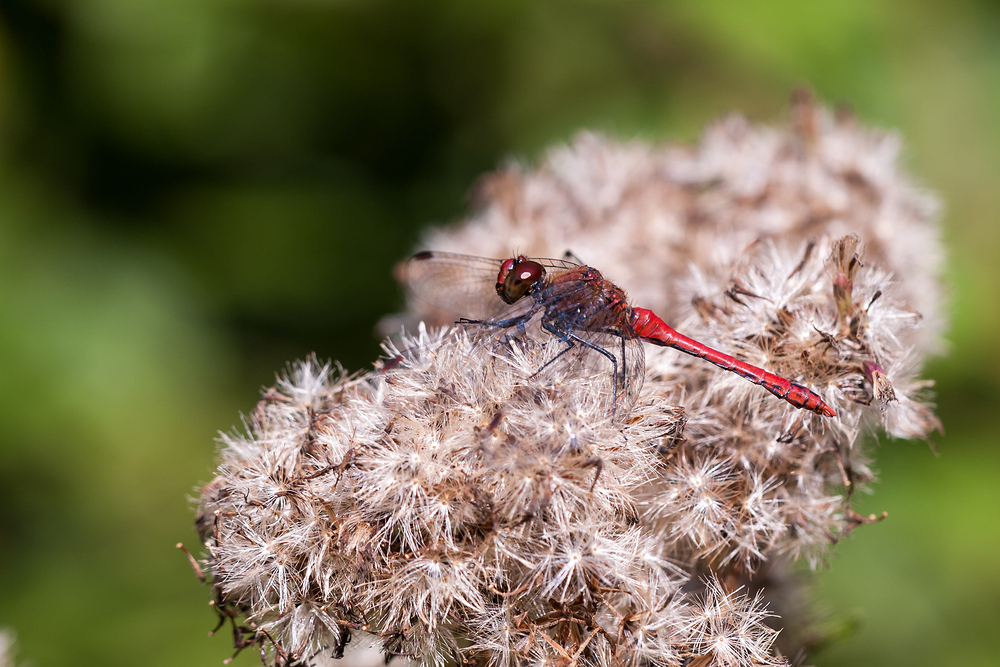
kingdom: Animalia
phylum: Arthropoda
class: Insecta
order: Odonata
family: Libellulidae
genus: Sympetrum
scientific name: Sympetrum sanguineum
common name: Ruddy darter
